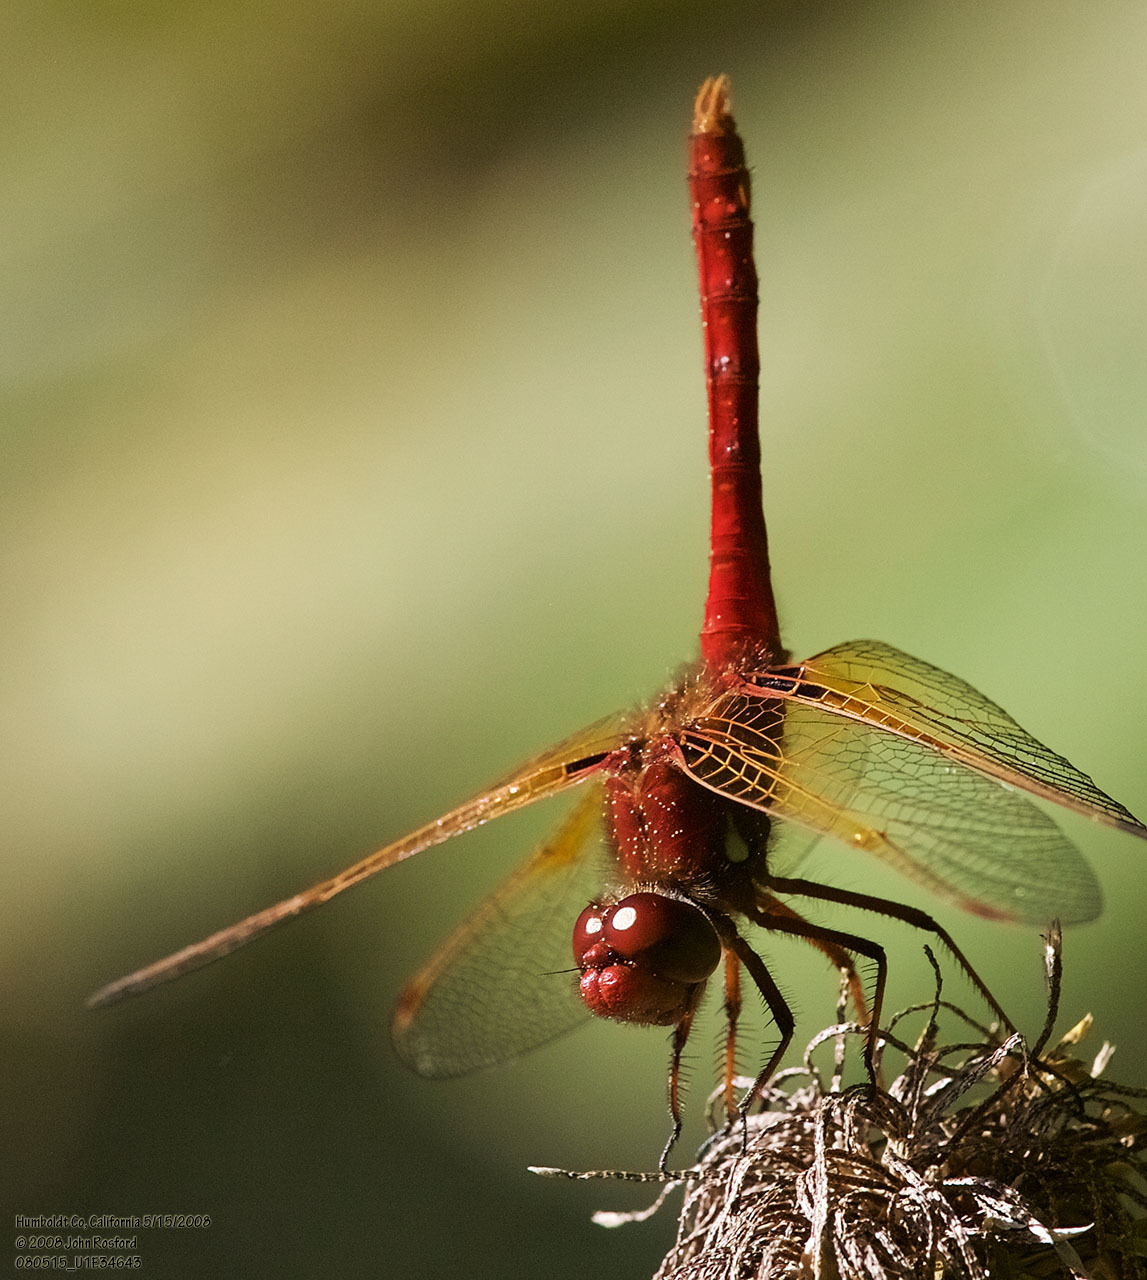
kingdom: Animalia
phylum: Arthropoda
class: Insecta
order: Odonata
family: Libellulidae
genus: Sympetrum
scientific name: Sympetrum illotum
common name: Cardinal meadowhawk
